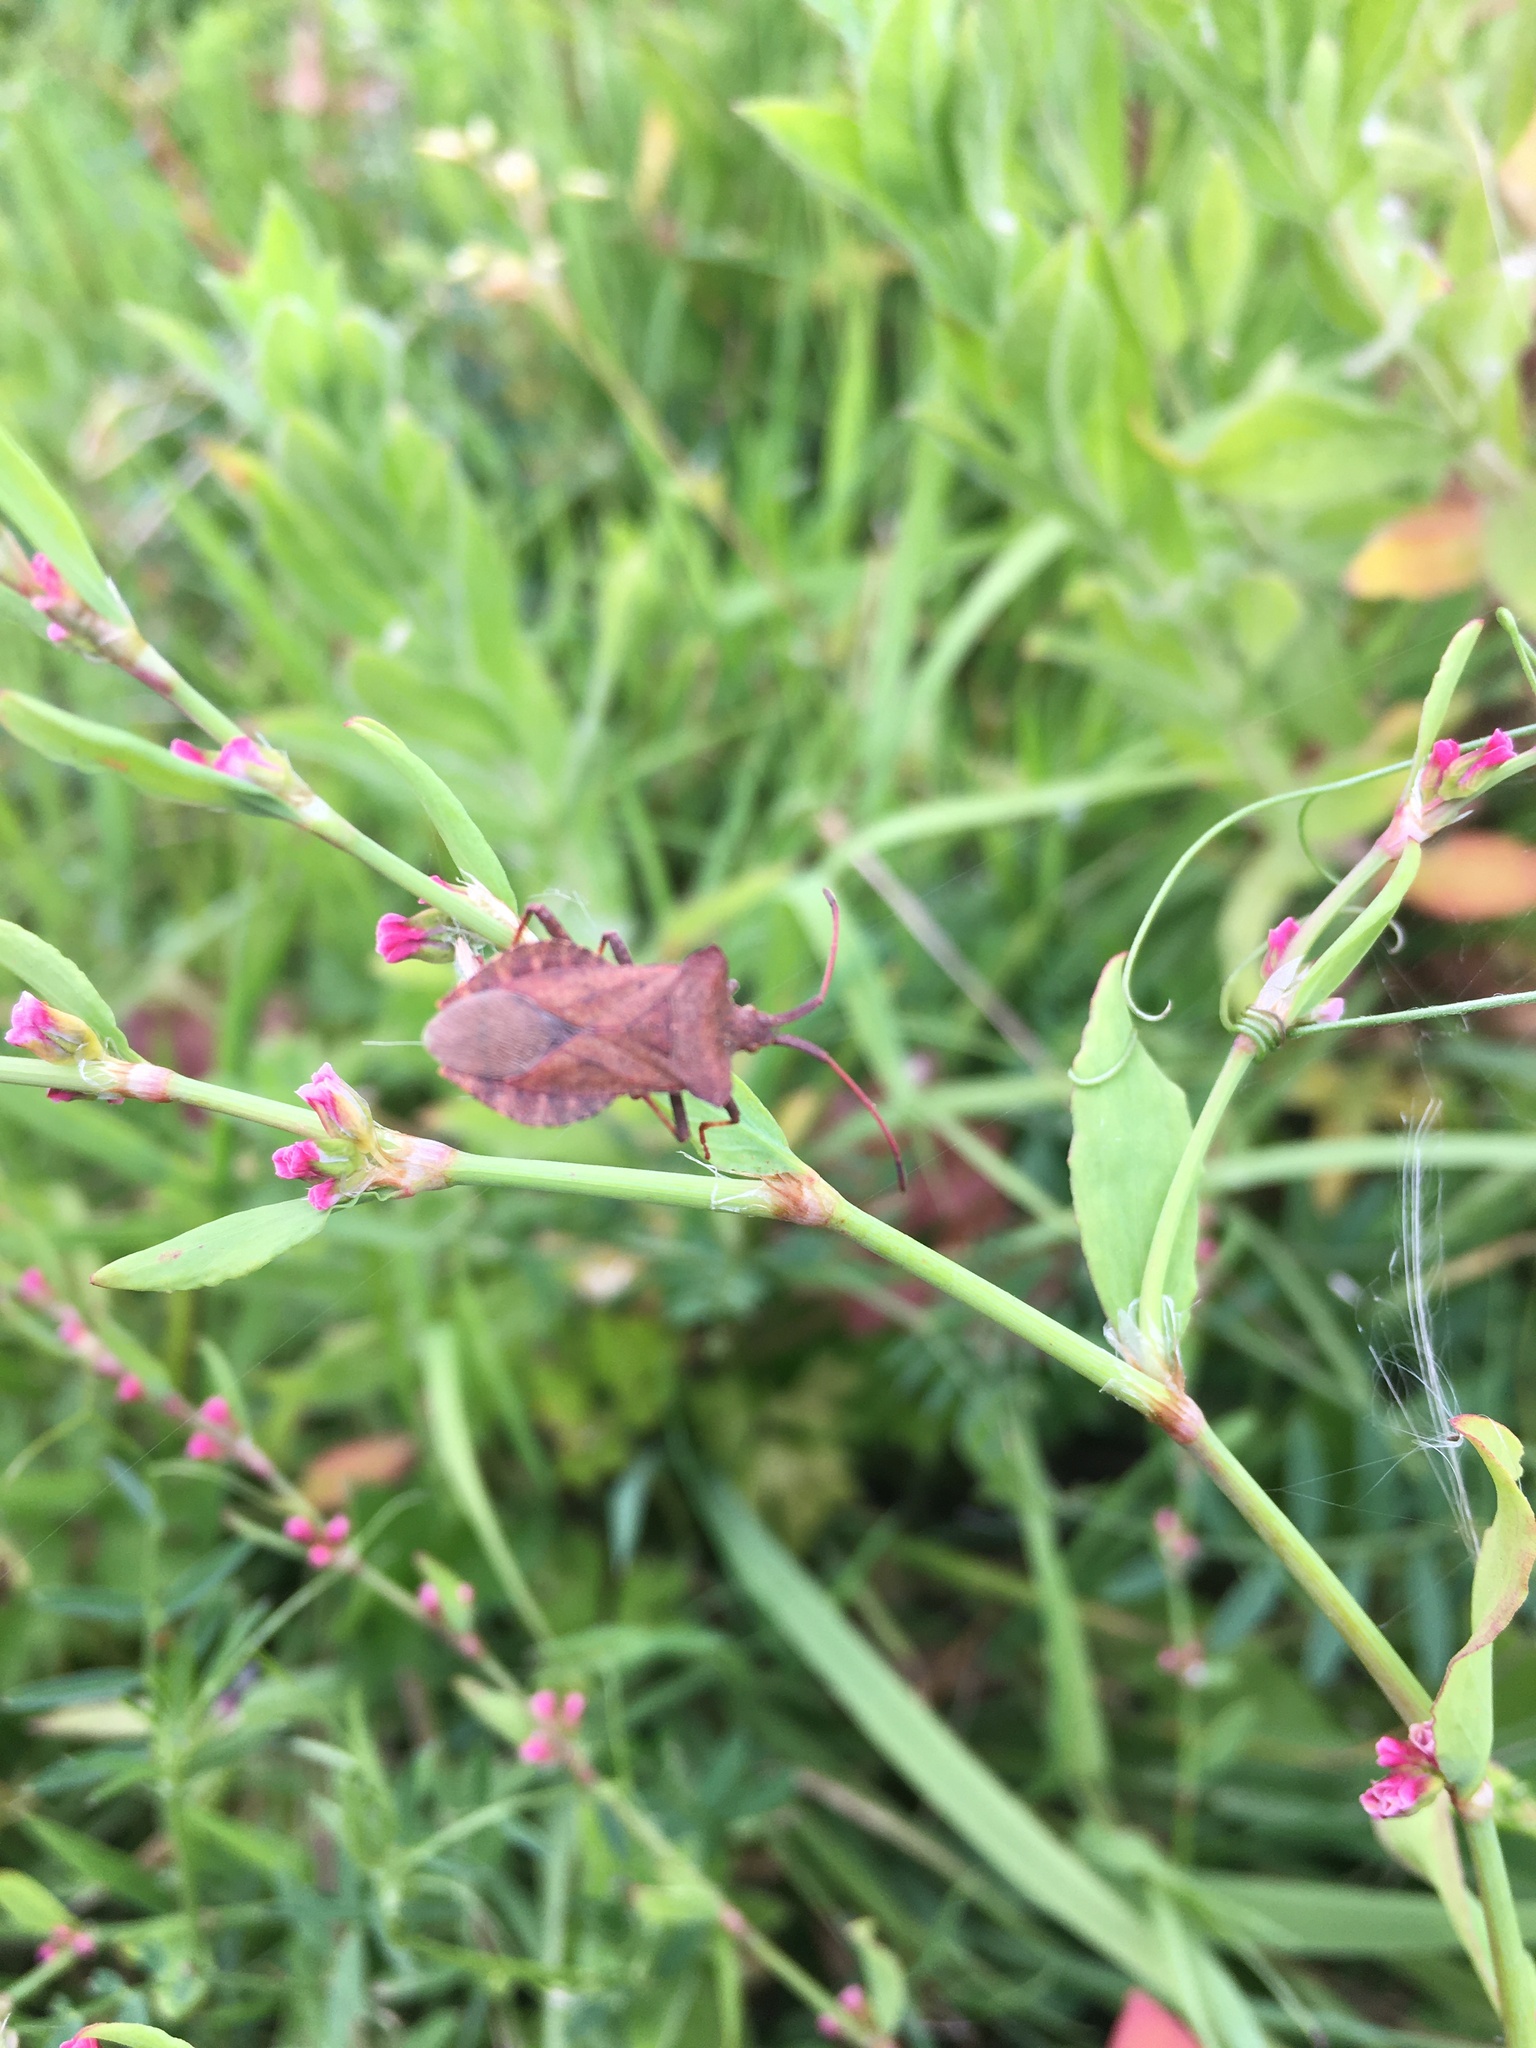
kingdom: Animalia
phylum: Arthropoda
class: Insecta
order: Hemiptera
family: Coreidae
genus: Coreus
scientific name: Coreus marginatus
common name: Dock bug
